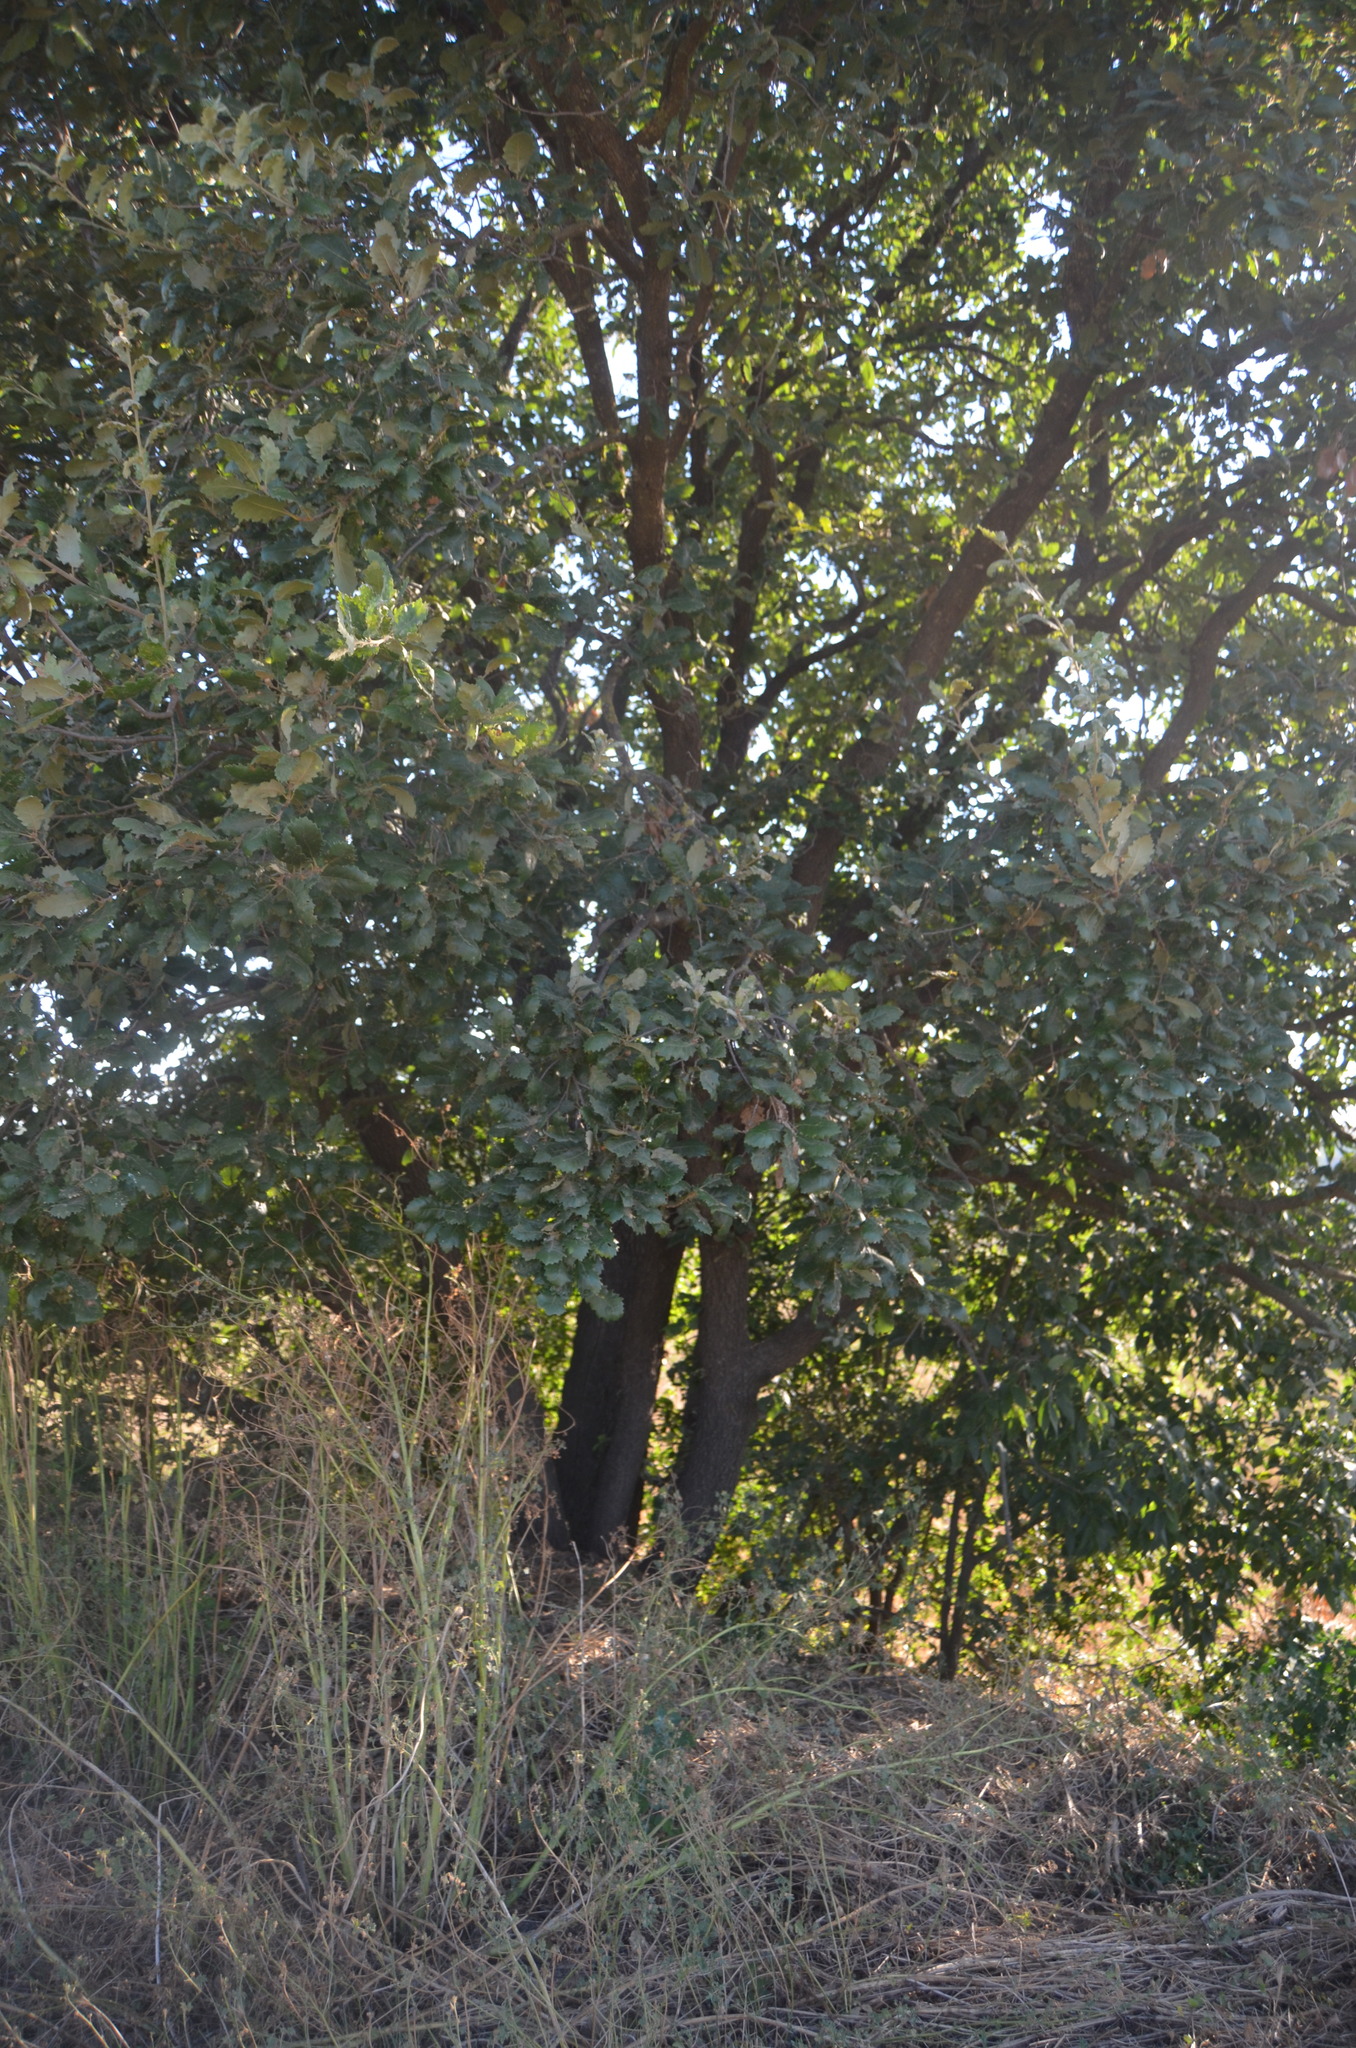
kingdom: Plantae
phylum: Tracheophyta
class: Magnoliopsida
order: Fagales
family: Fagaceae
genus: Quercus
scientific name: Quercus pubescens
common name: Downy oak
